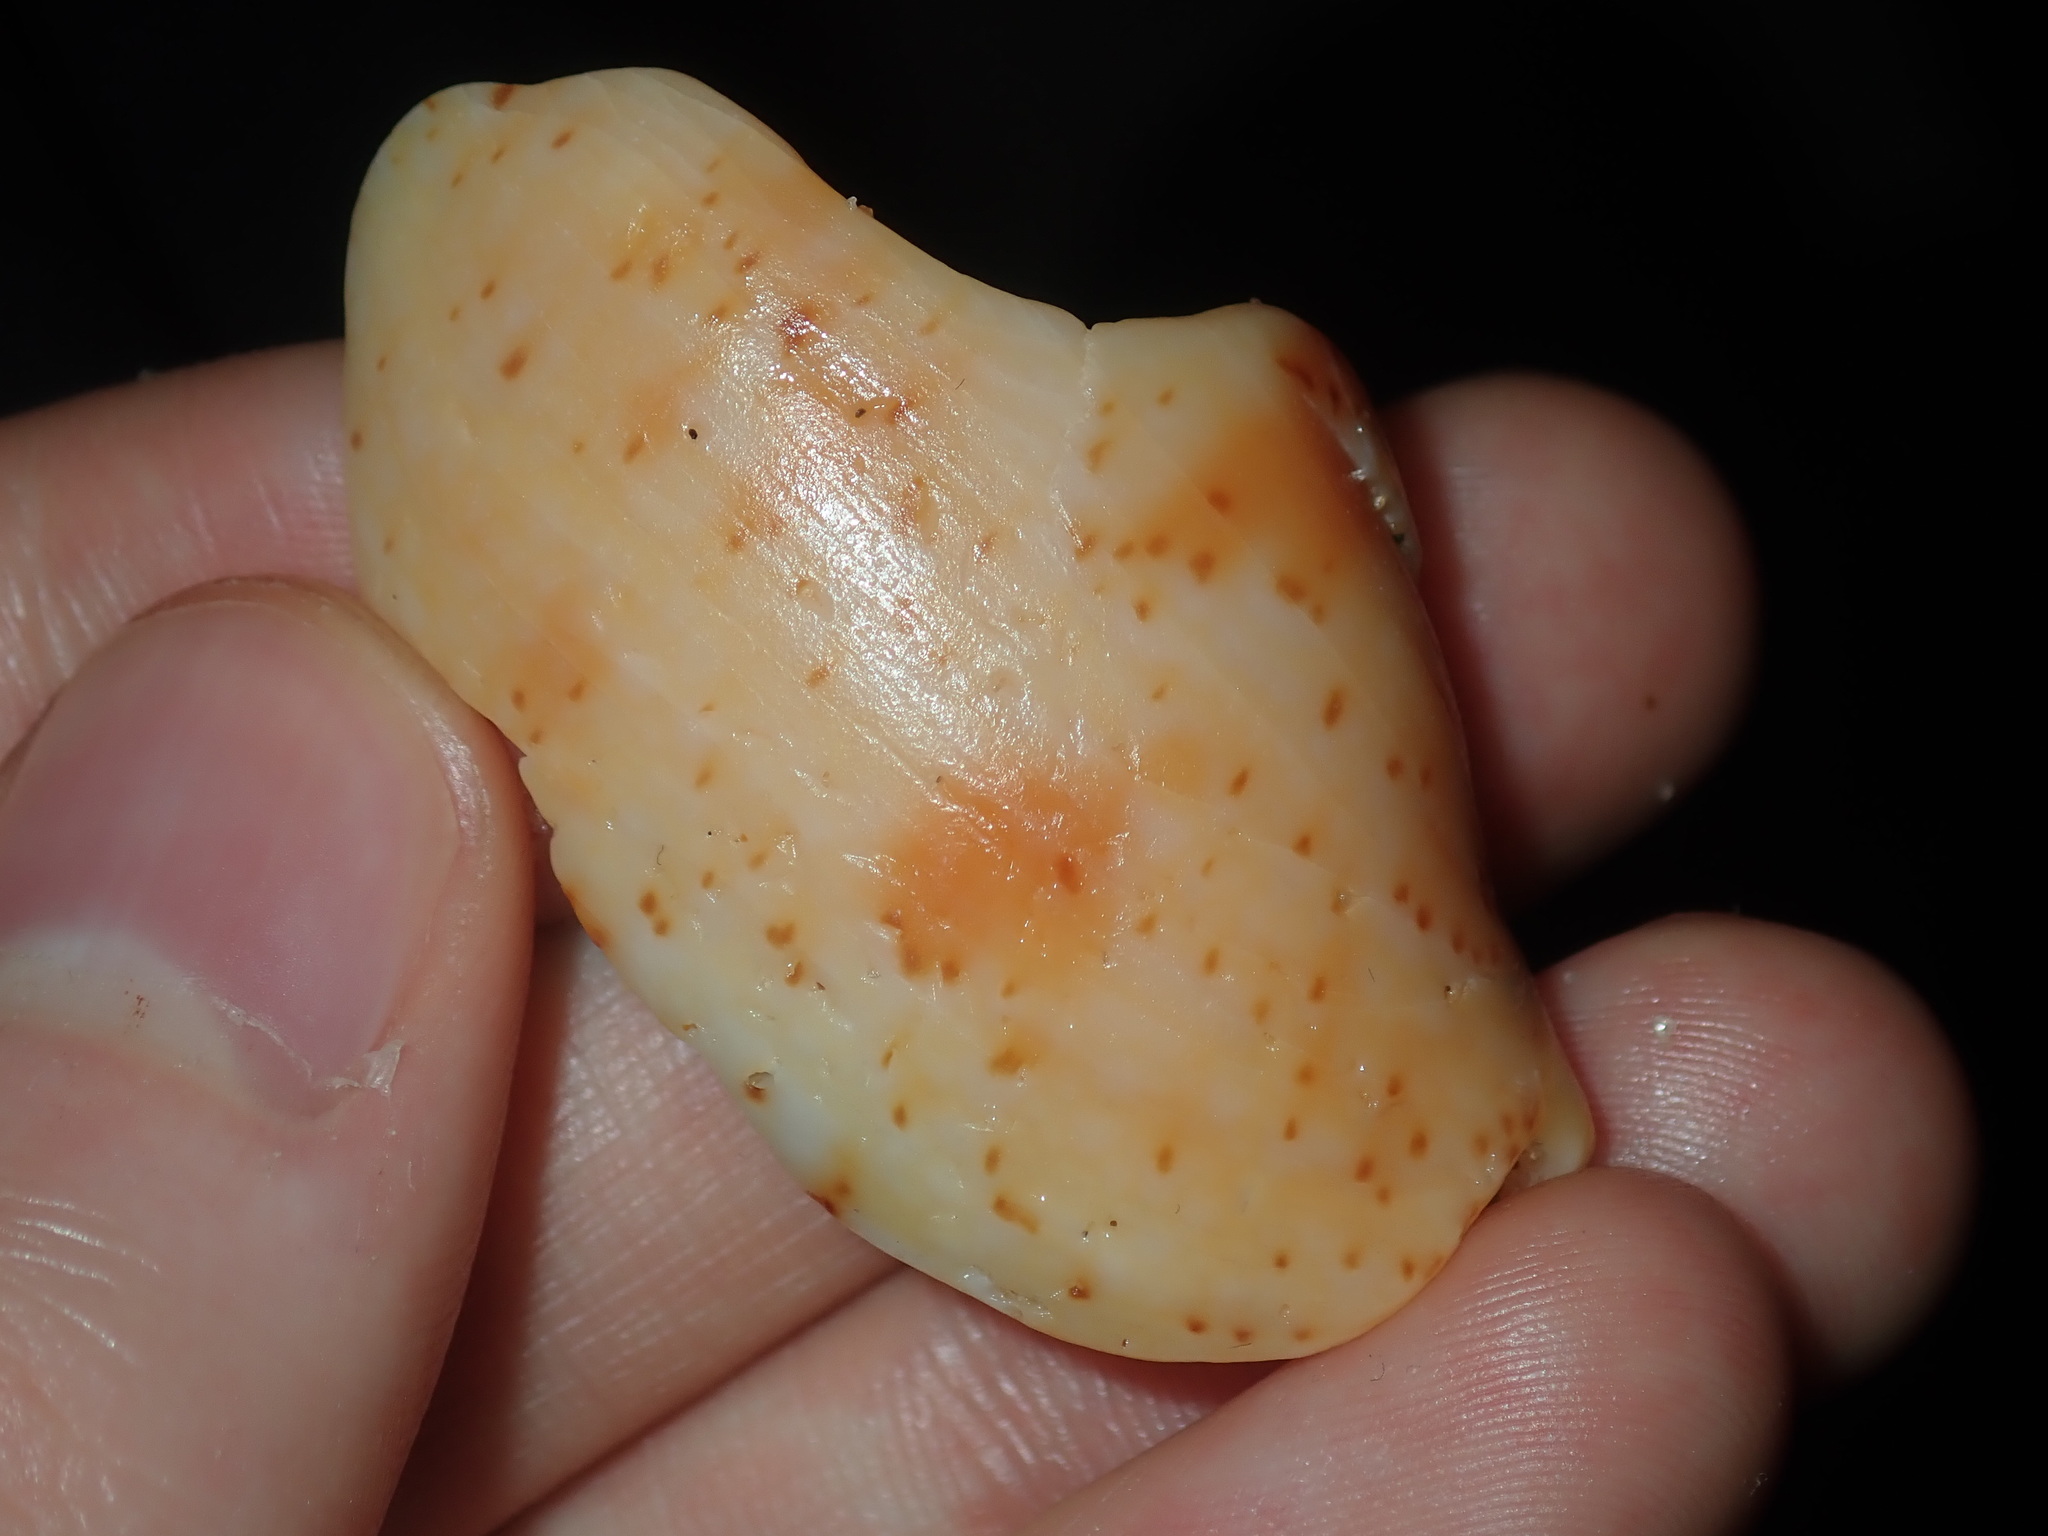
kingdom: Animalia
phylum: Mollusca
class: Gastropoda
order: Neogastropoda
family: Volutidae
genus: Cymbiola
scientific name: Cymbiola complexa
